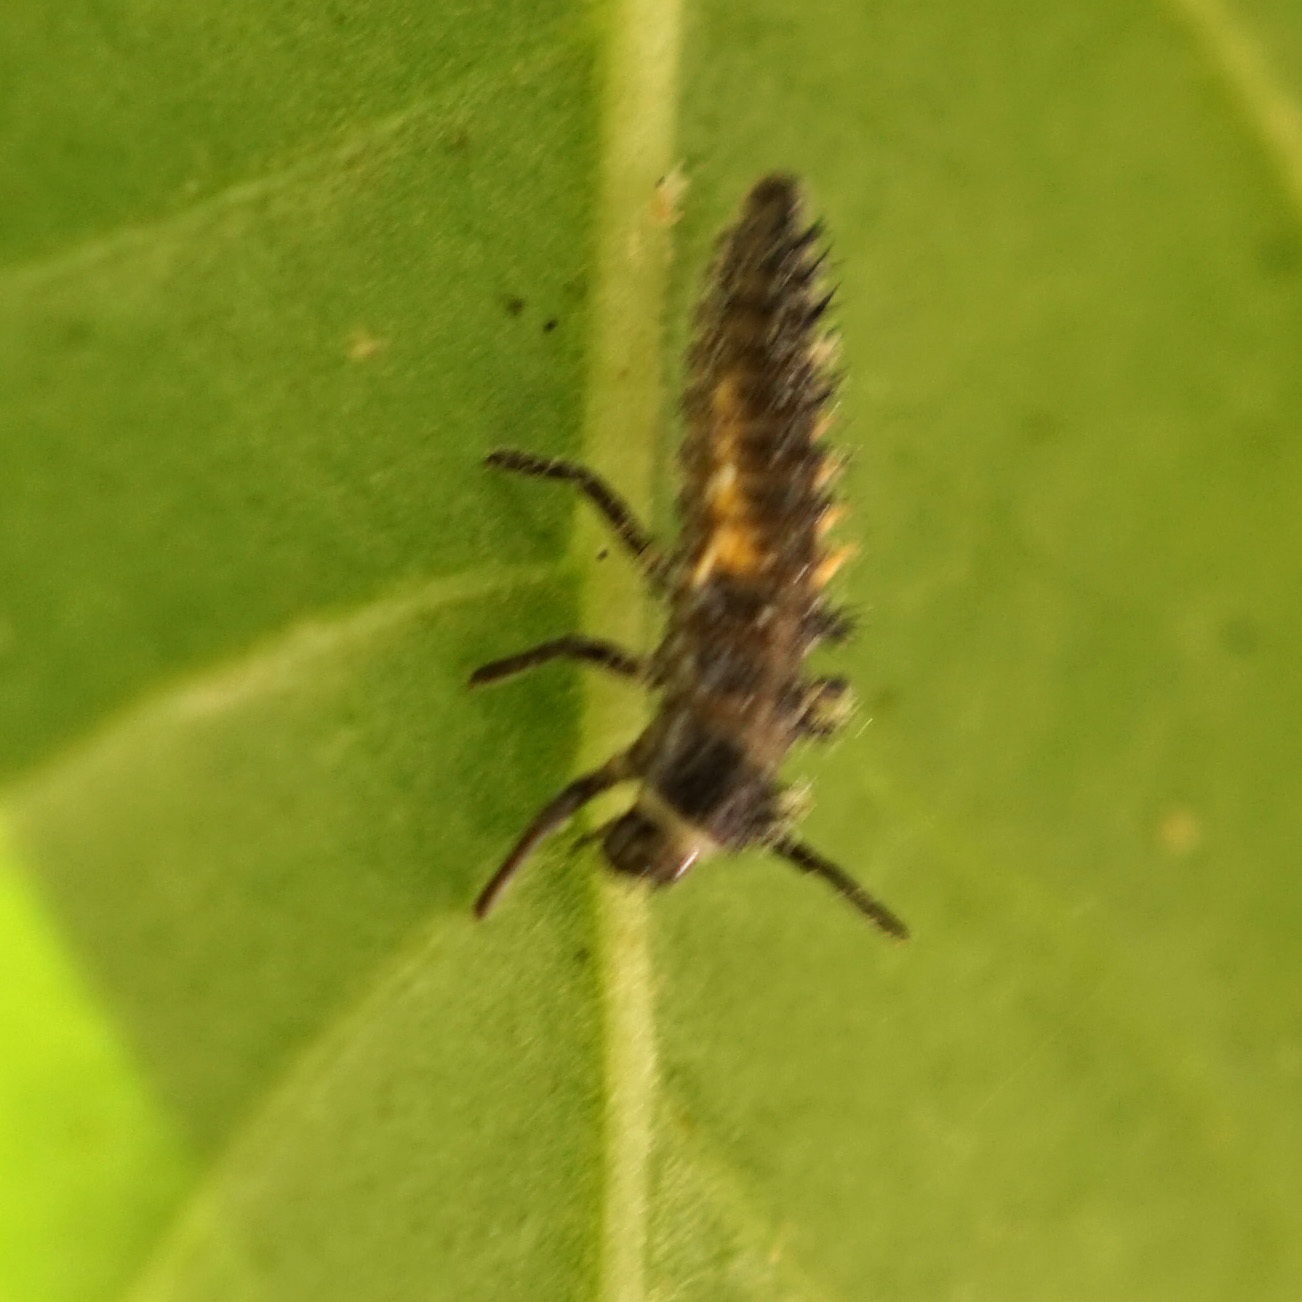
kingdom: Animalia
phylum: Arthropoda
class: Insecta
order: Coleoptera
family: Coccinellidae
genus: Harmonia
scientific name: Harmonia axyridis
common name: Harlequin ladybird
